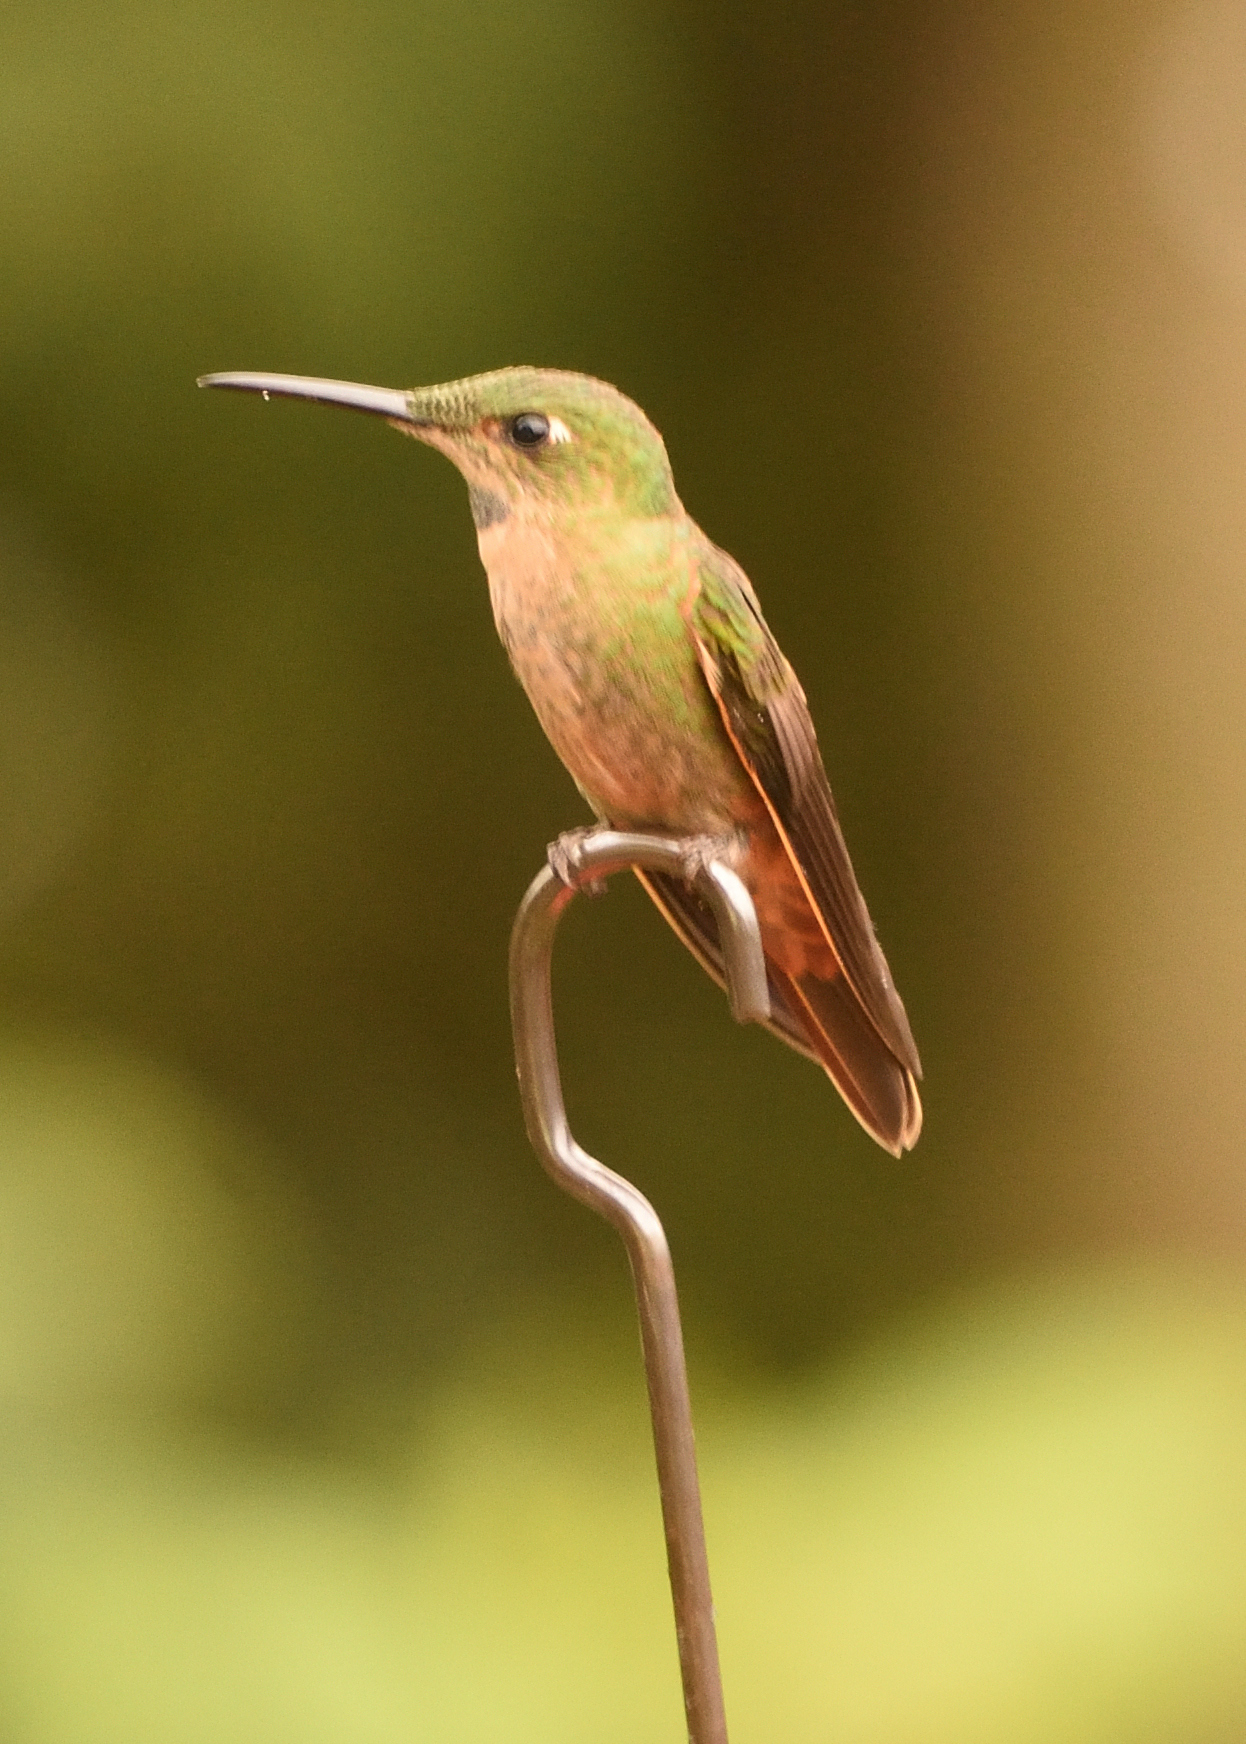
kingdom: Animalia
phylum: Chordata
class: Aves
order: Apodiformes
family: Trochilidae
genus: Heliodoxa
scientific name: Heliodoxa rubinoides
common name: Fawn-breasted brilliant
